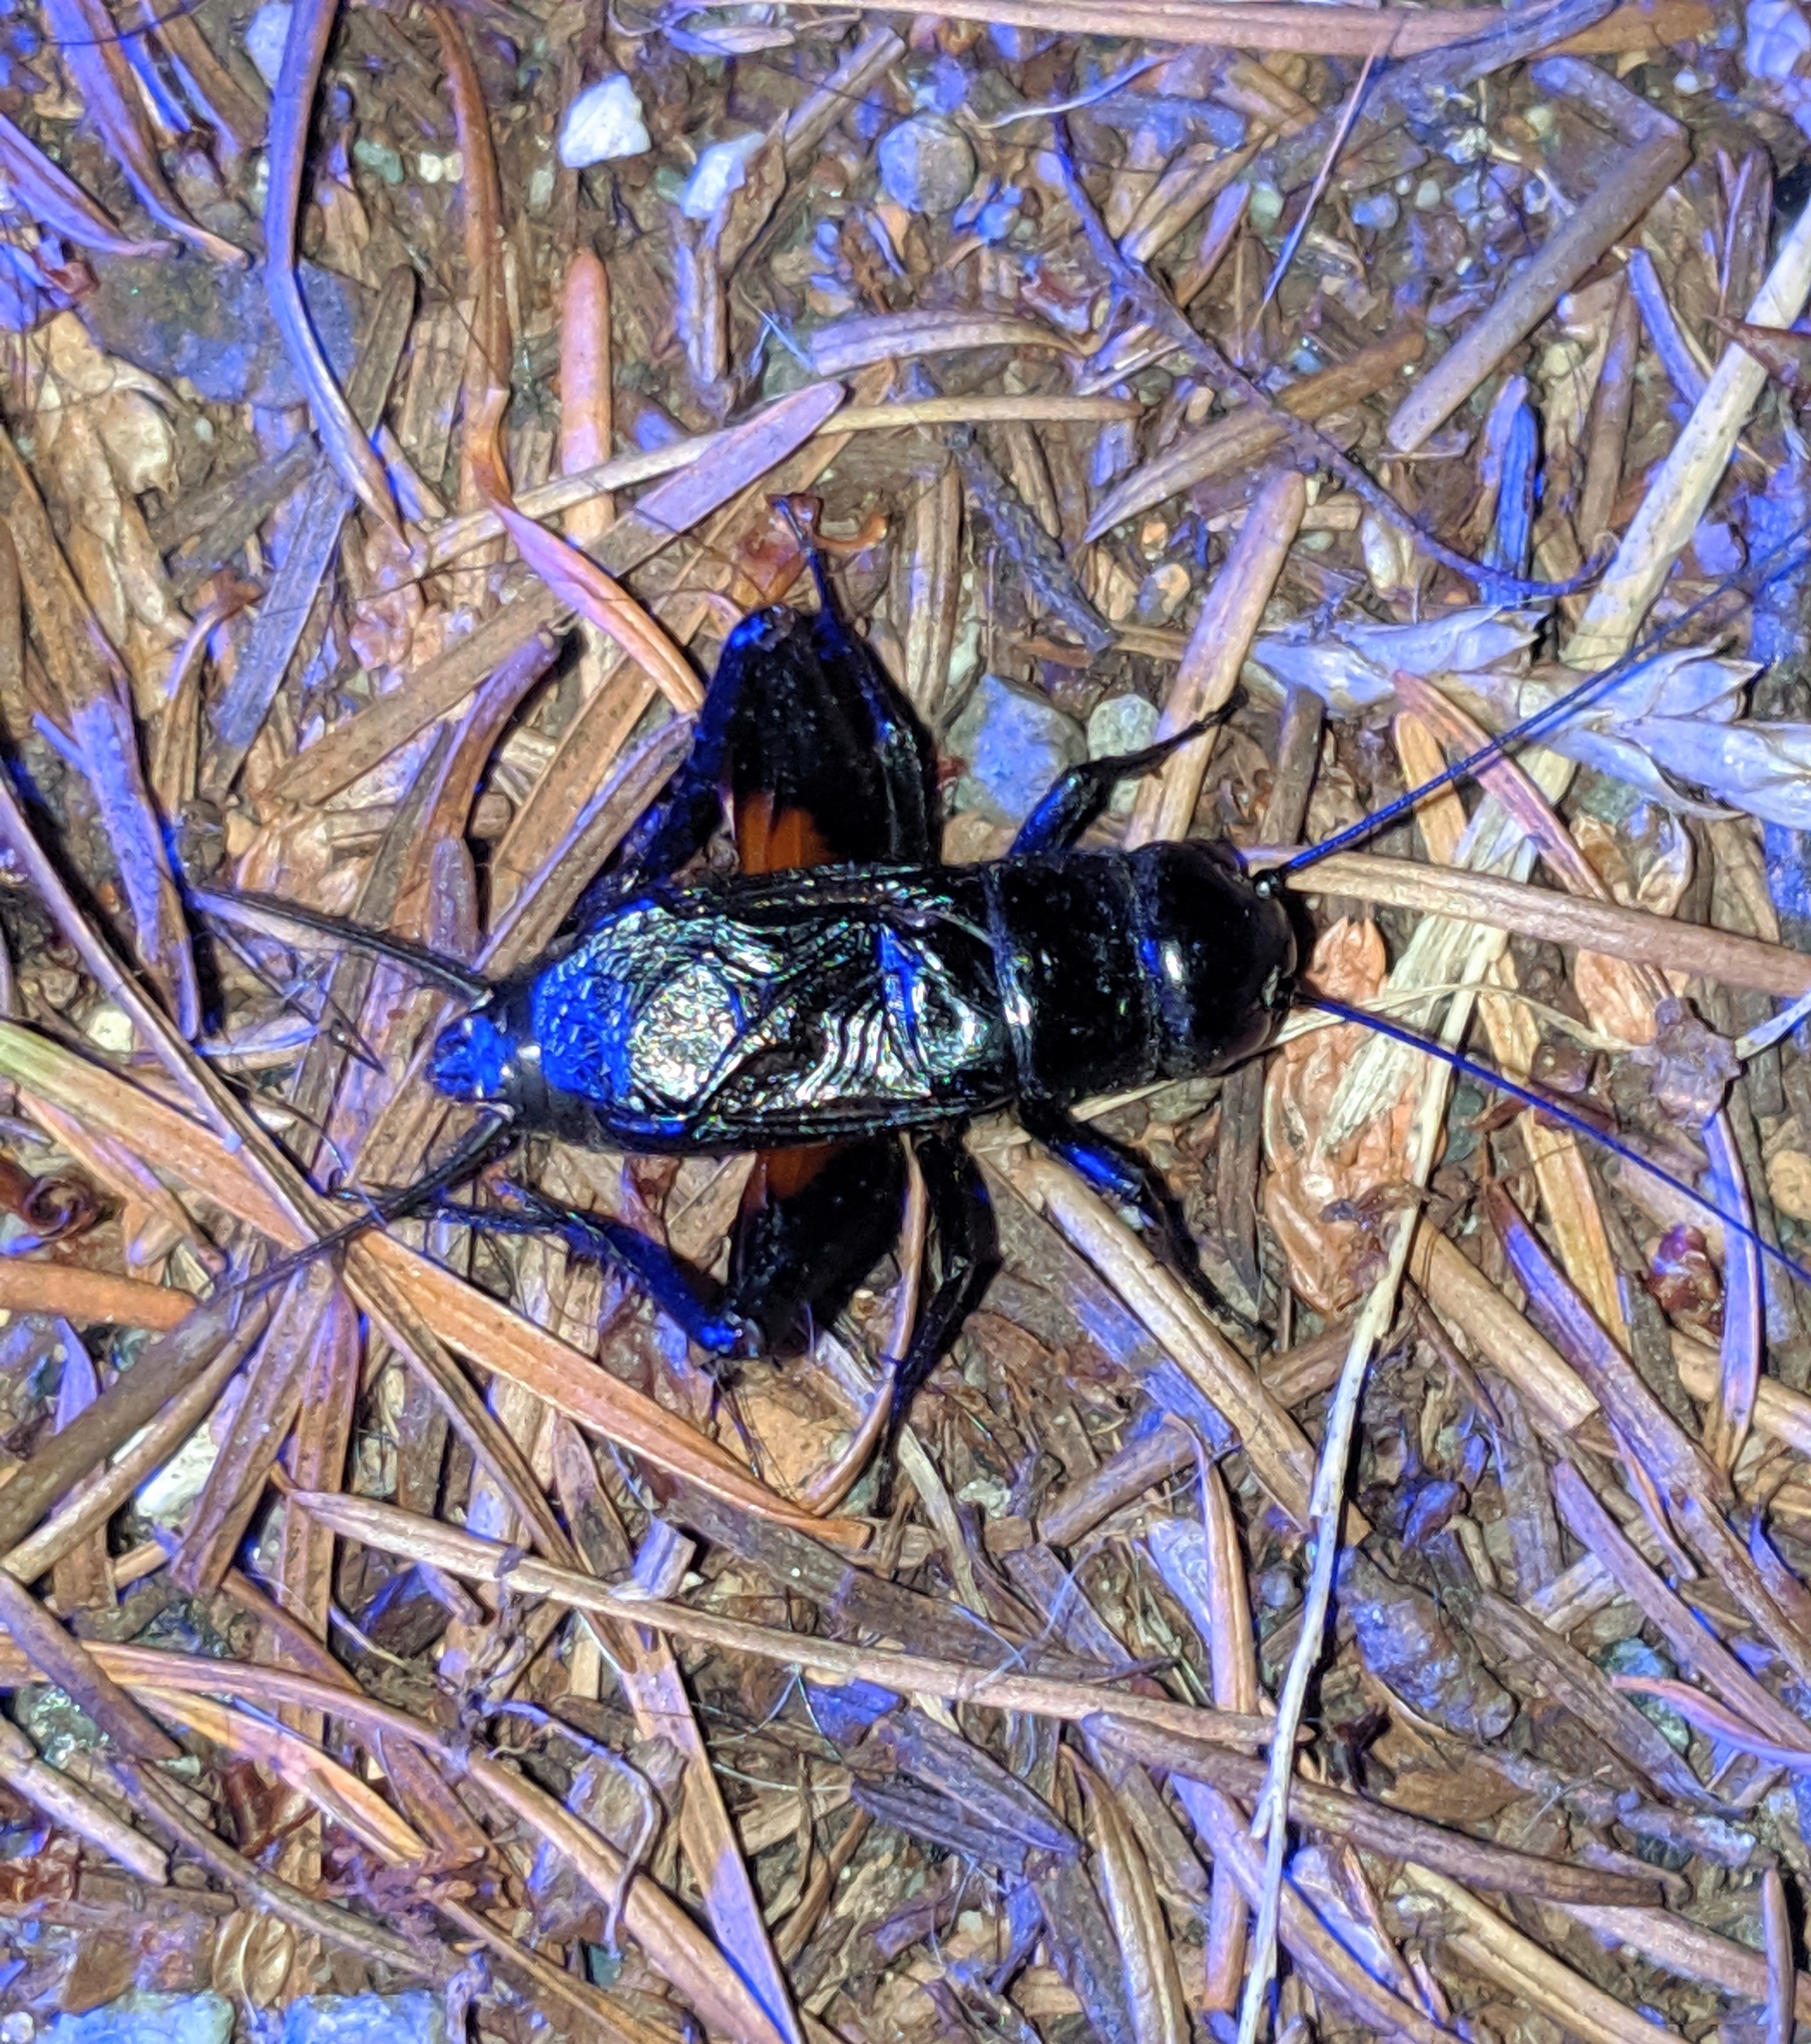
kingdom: Animalia
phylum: Arthropoda
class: Insecta
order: Orthoptera
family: Gryllidae
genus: Gryllus
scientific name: Gryllus pennsylvanicus
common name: Fall field cricket
